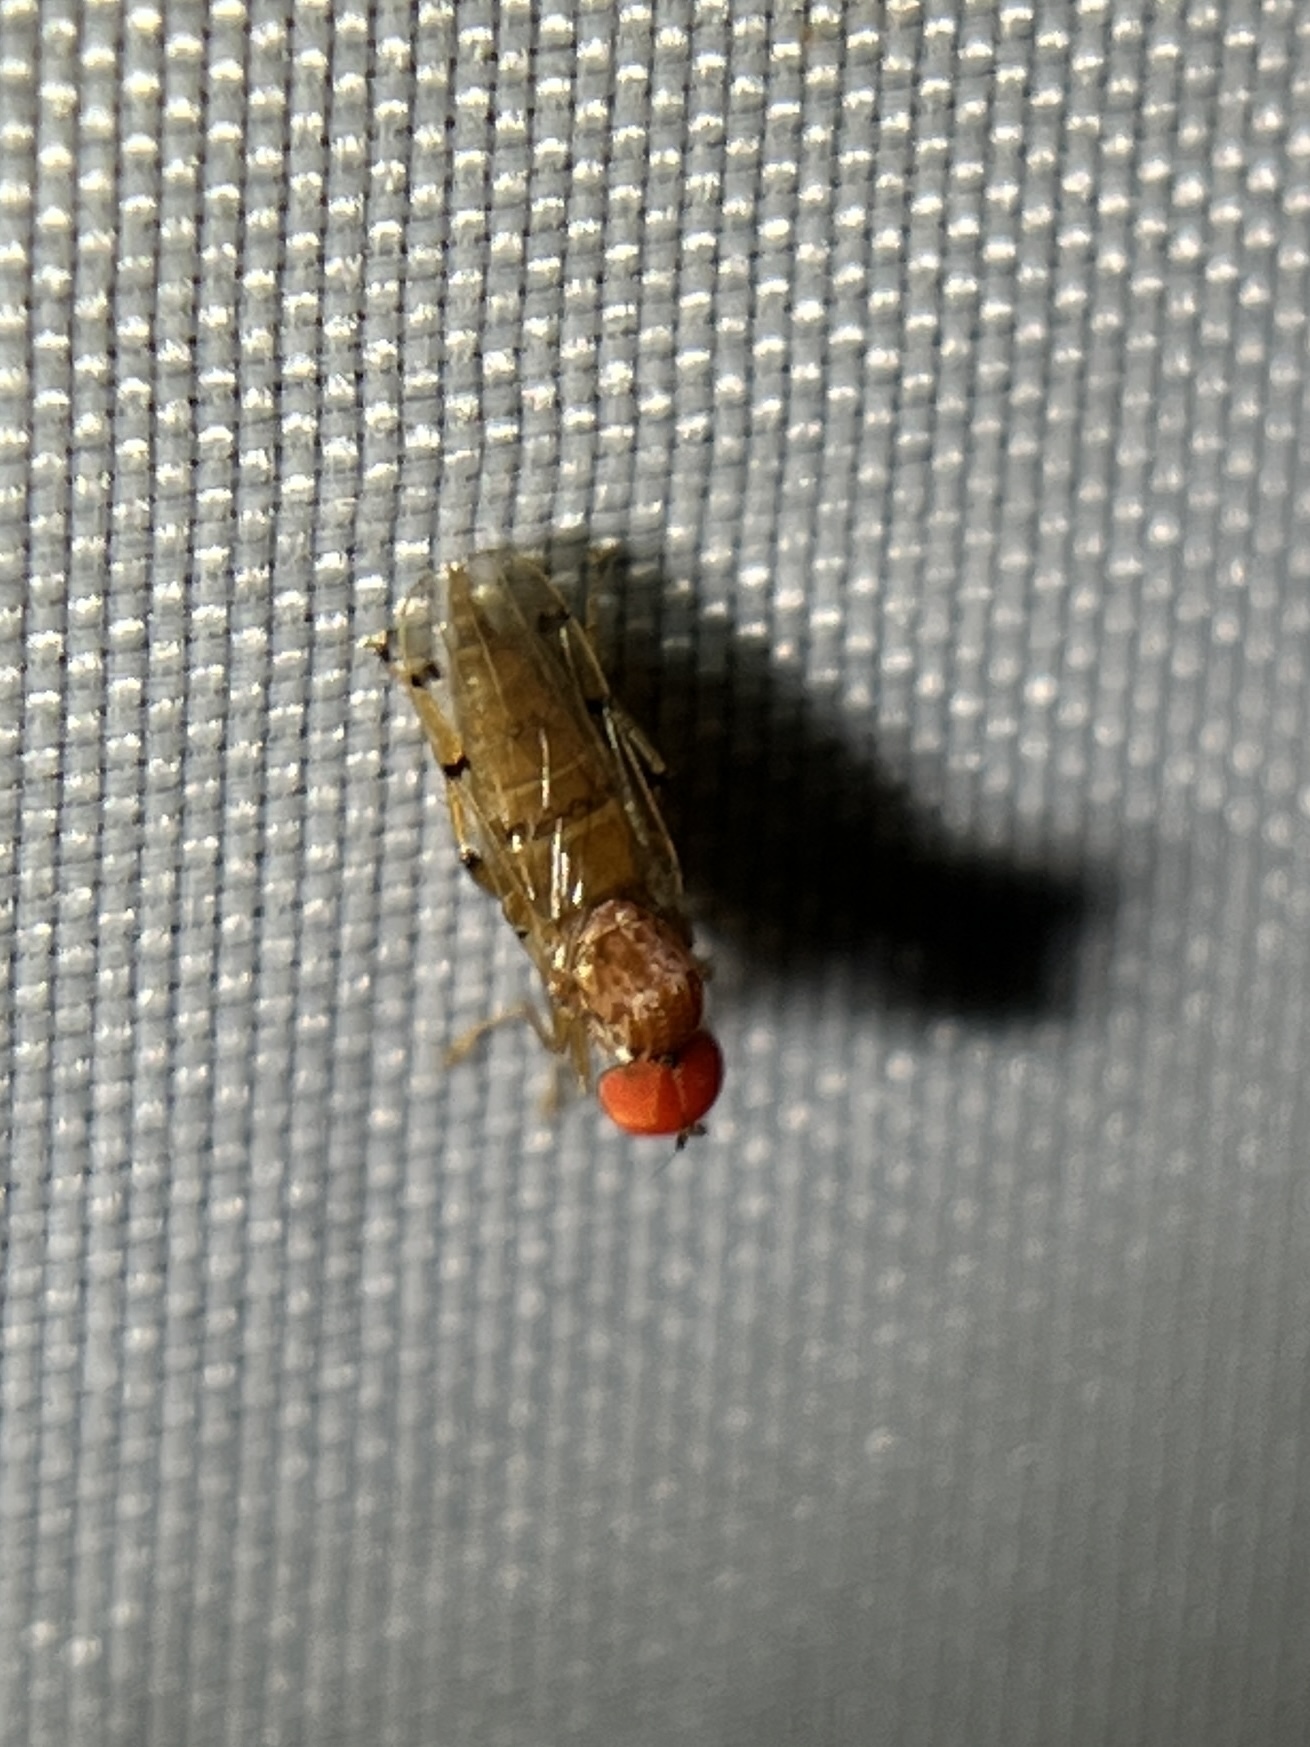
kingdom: Animalia
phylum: Arthropoda
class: Insecta
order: Diptera
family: Hybotidae
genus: Syneches
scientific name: Syneches simplex
